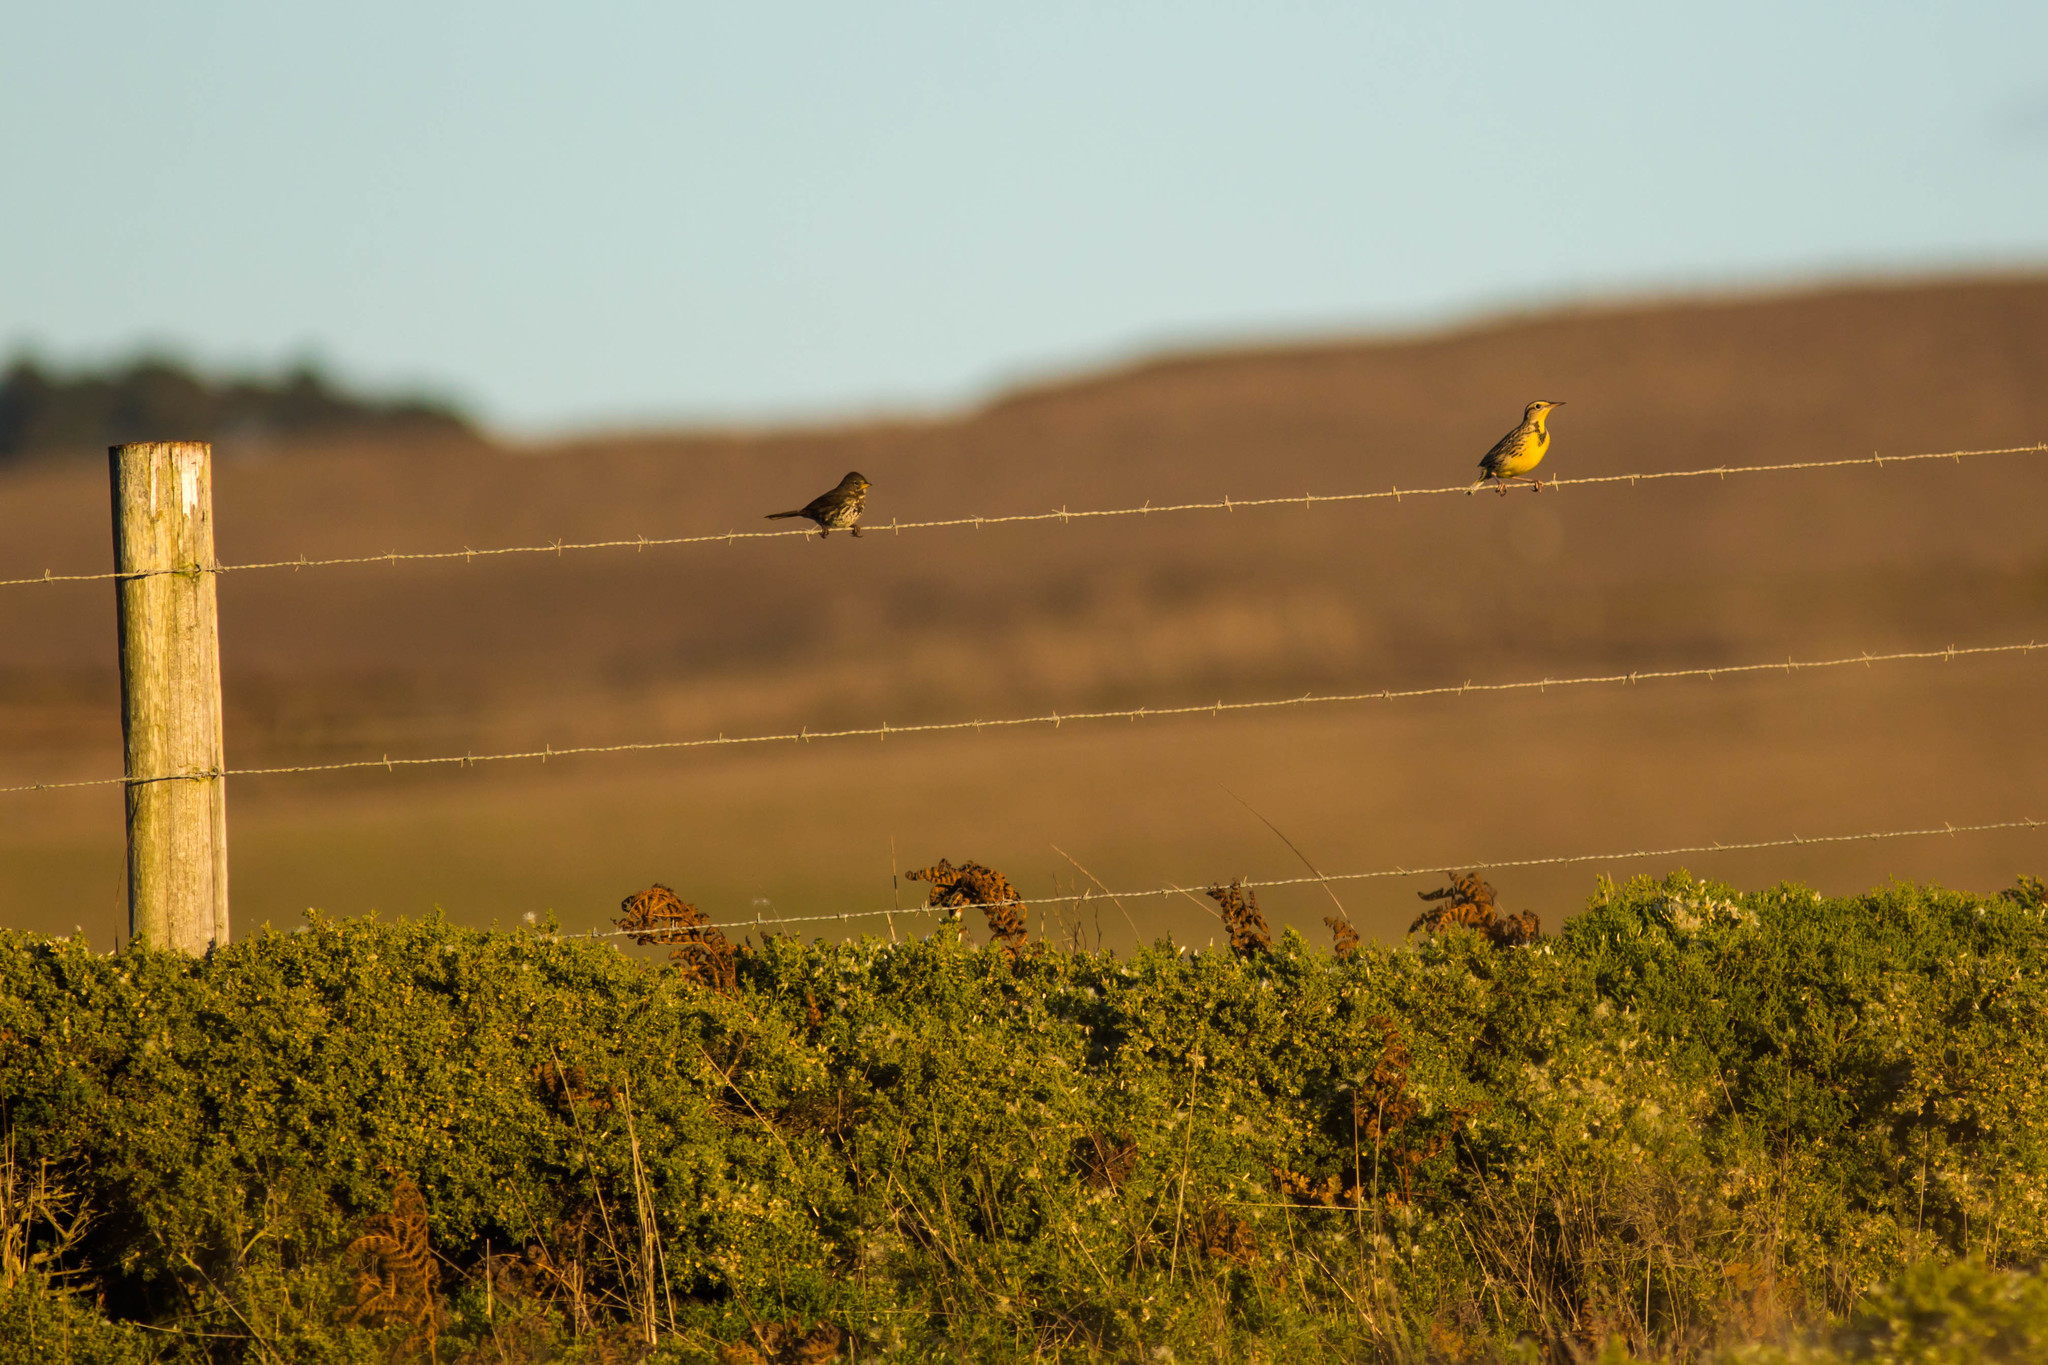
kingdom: Animalia
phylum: Chordata
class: Aves
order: Passeriformes
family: Icteridae
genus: Sturnella
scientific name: Sturnella neglecta
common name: Western meadowlark
